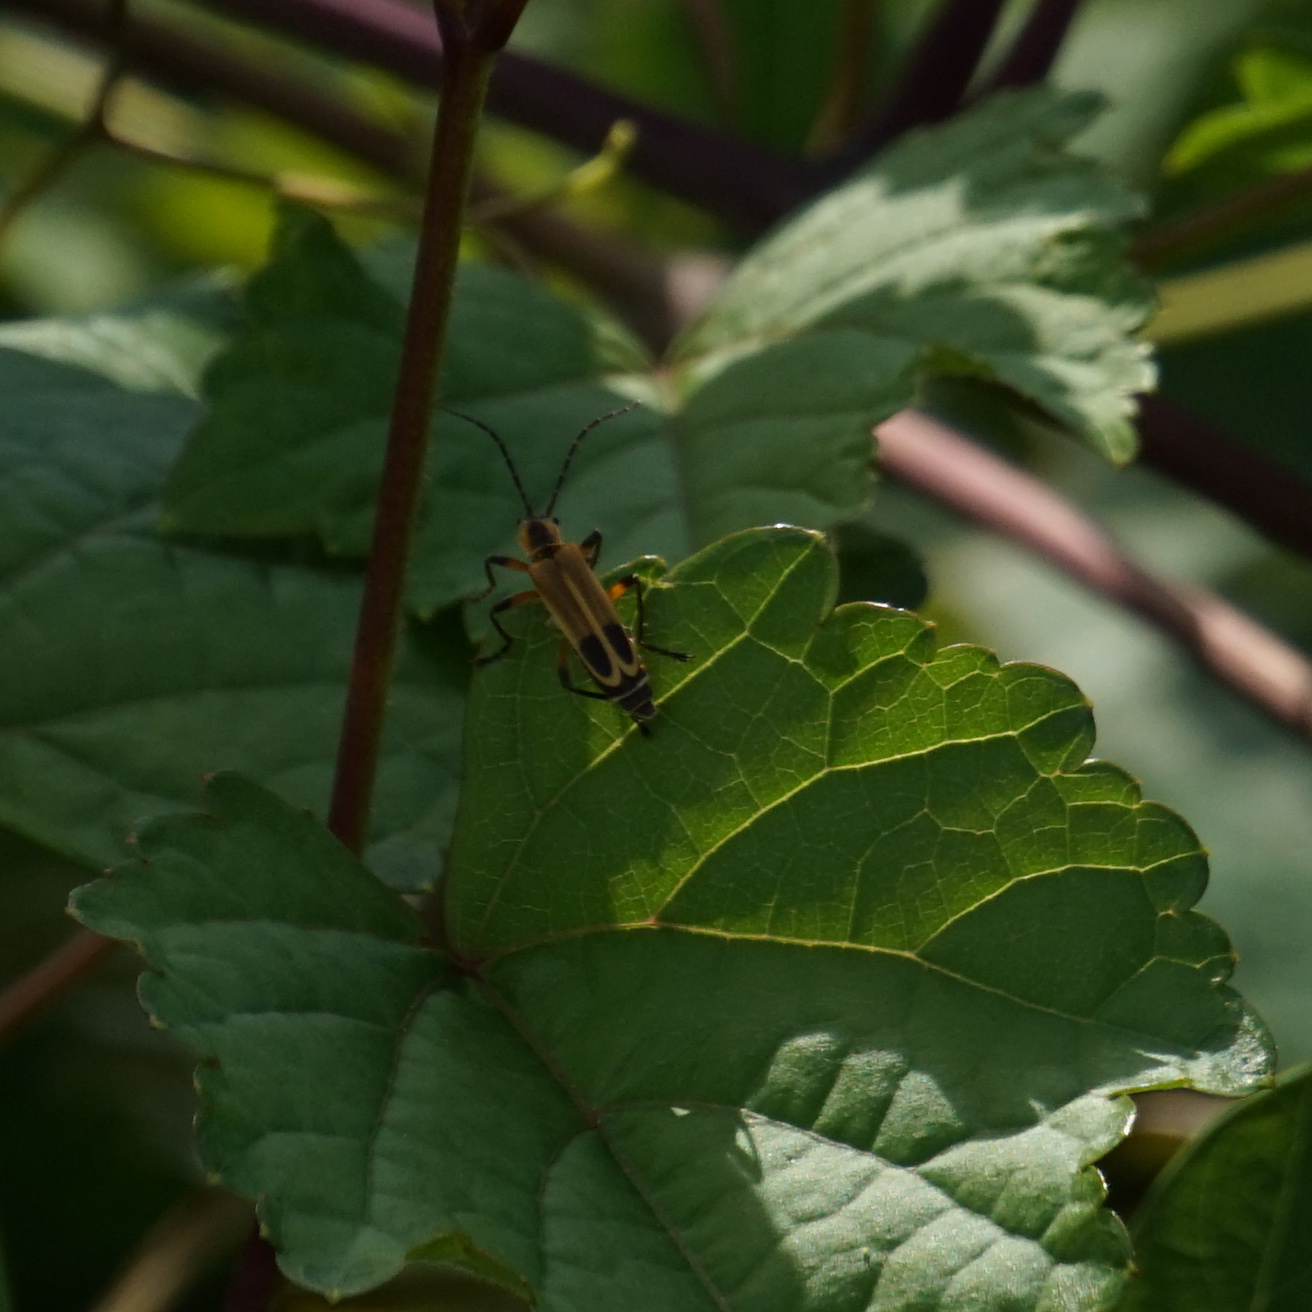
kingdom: Animalia
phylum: Arthropoda
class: Insecta
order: Coleoptera
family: Cantharidae
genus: Chauliognathus
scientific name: Chauliognathus marginatus
